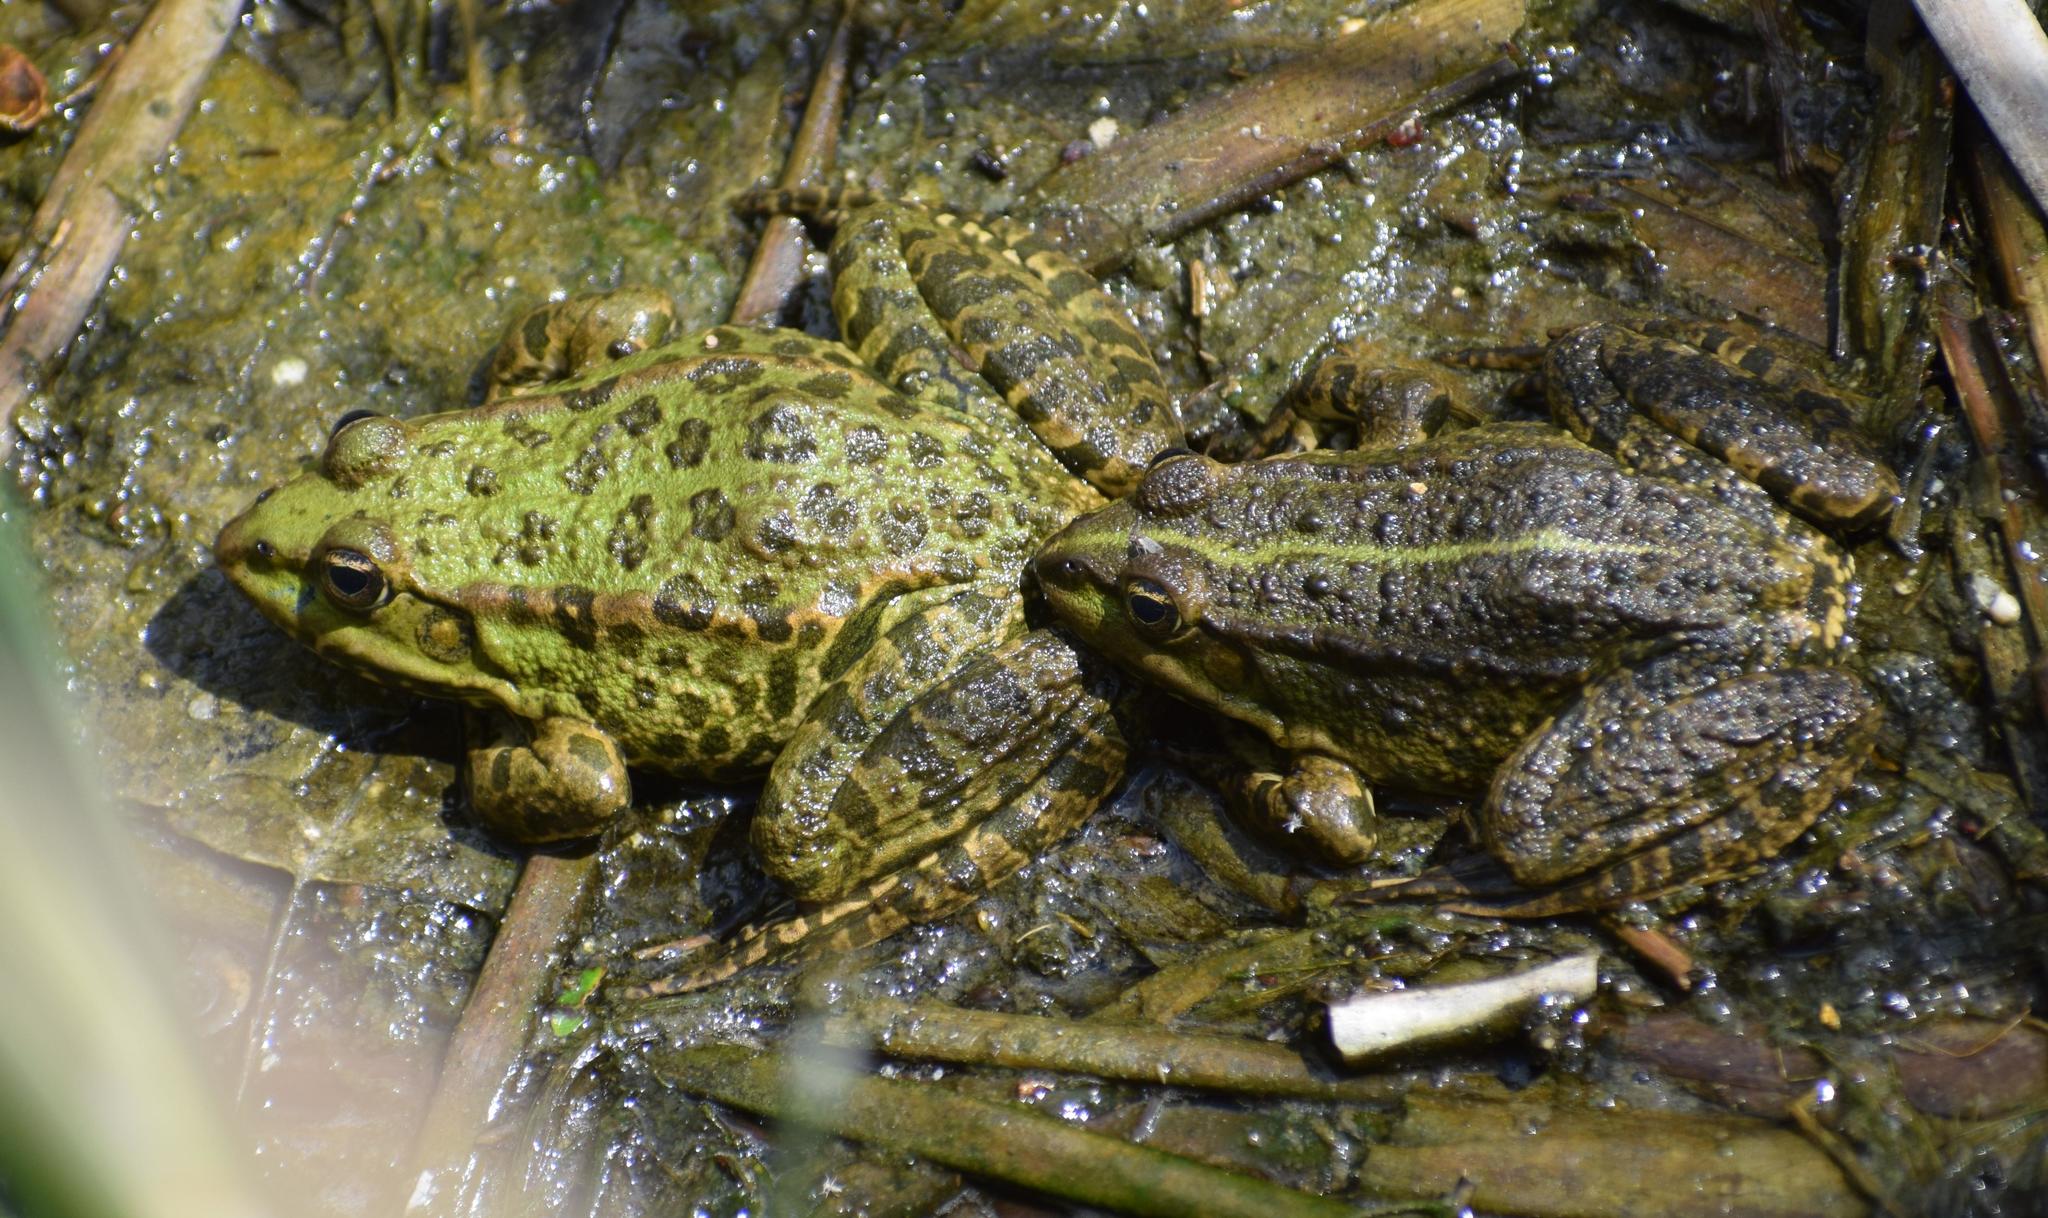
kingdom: Animalia
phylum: Chordata
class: Amphibia
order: Anura
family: Ranidae
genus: Pelophylax
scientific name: Pelophylax
